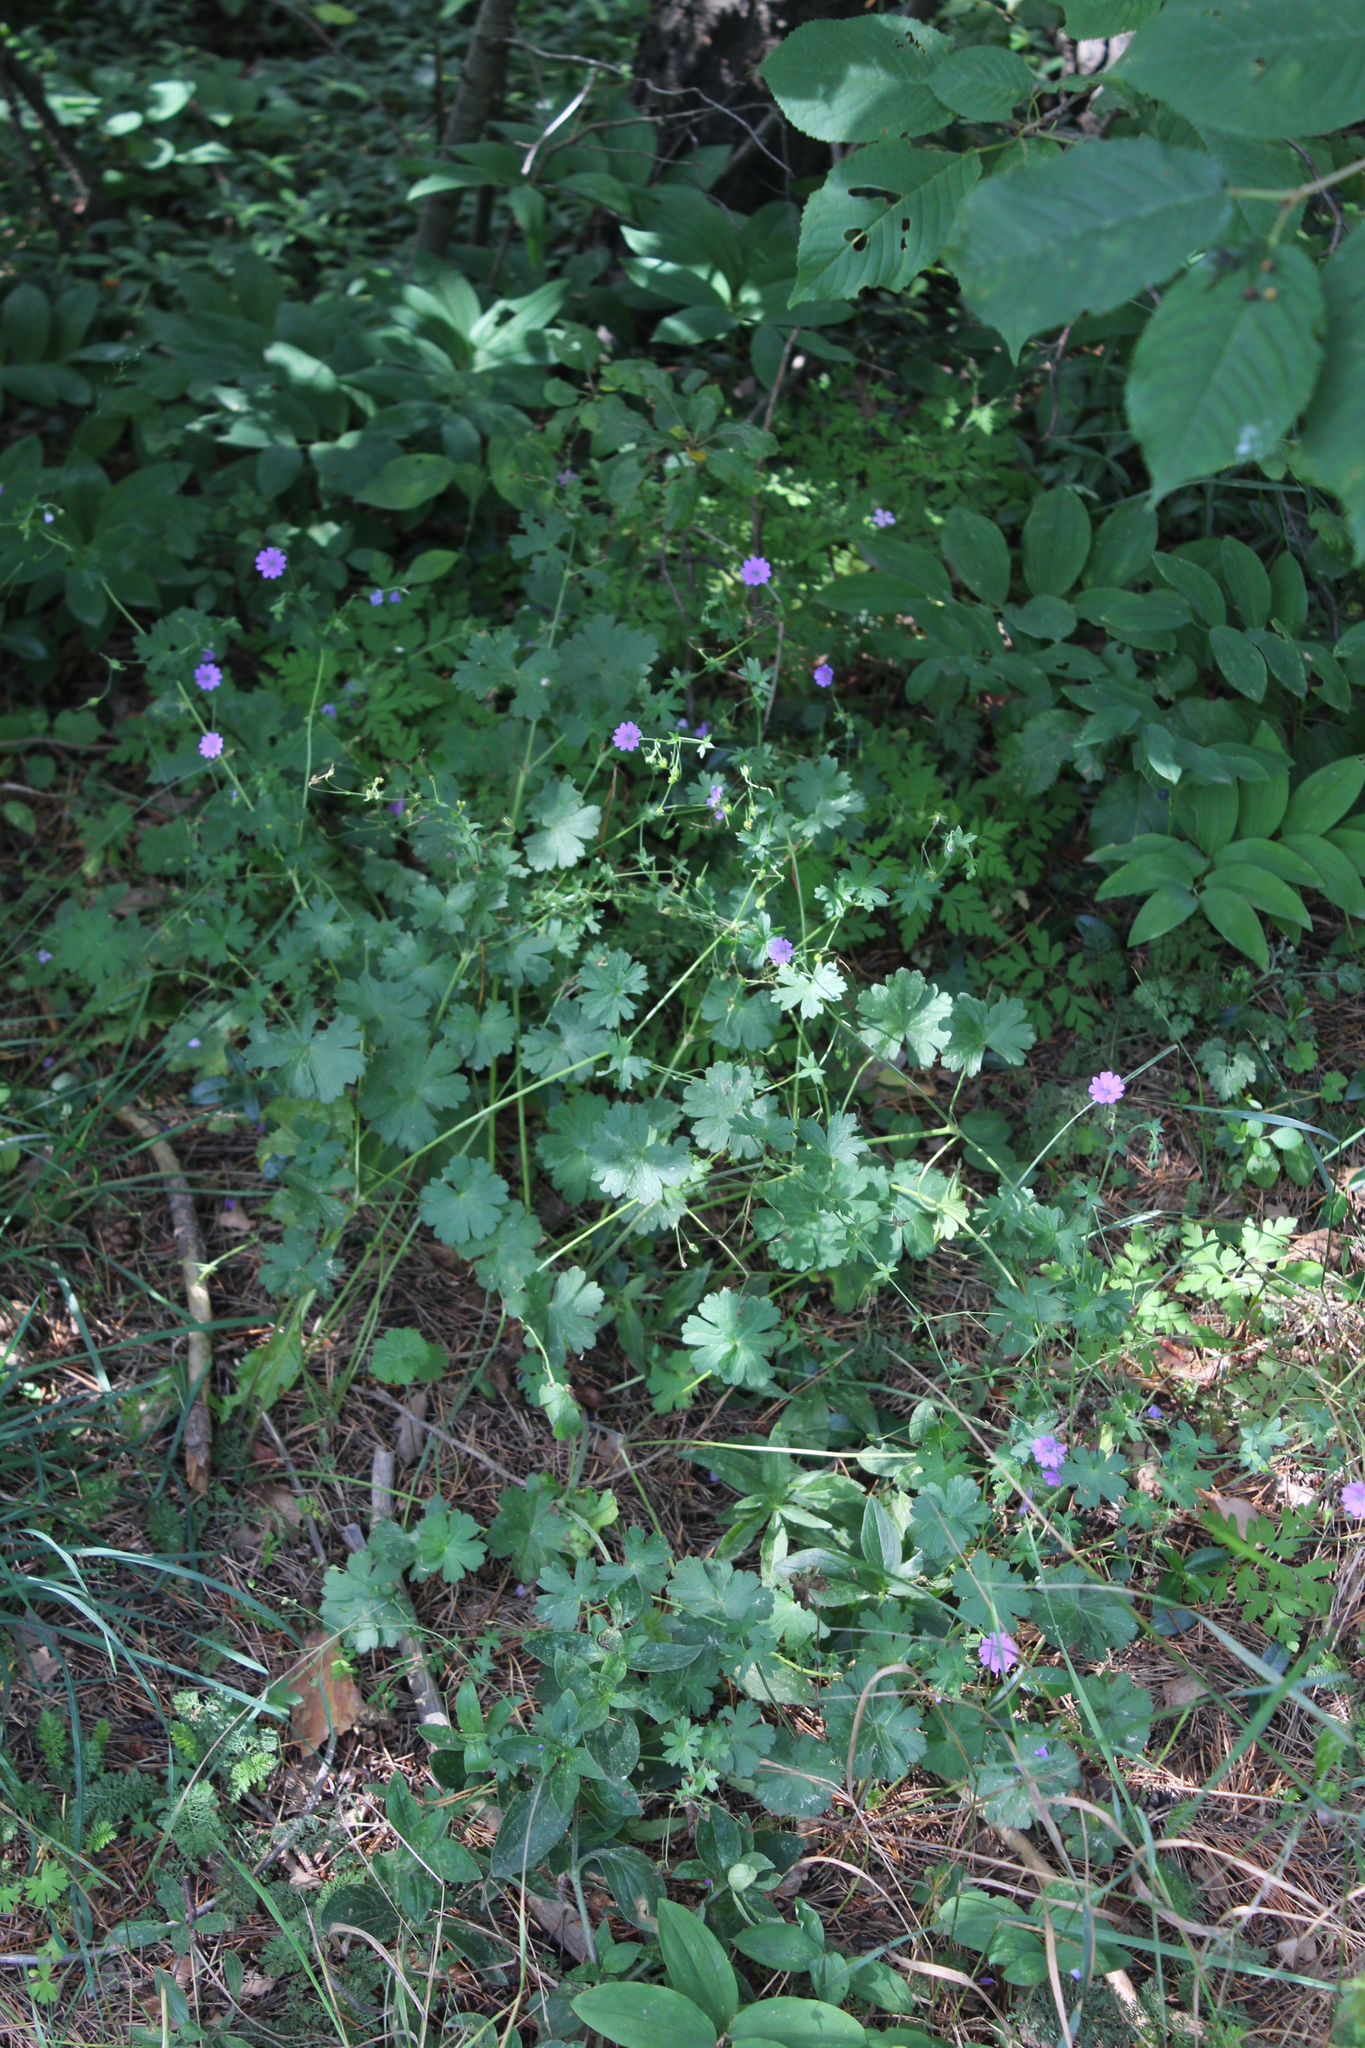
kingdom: Plantae
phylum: Tracheophyta
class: Magnoliopsida
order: Geraniales
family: Geraniaceae
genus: Geranium
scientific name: Geranium pyrenaicum
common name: Hedgerow crane's-bill
